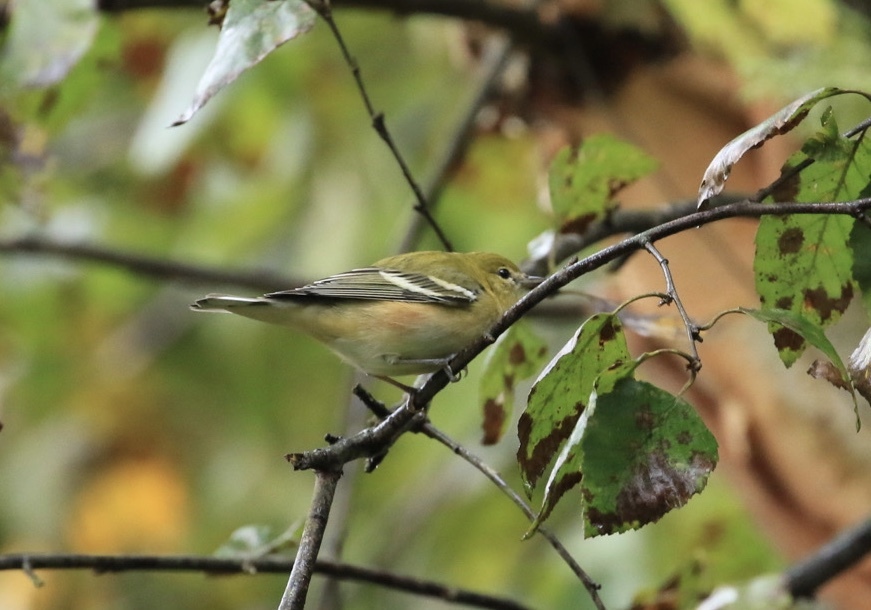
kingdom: Animalia
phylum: Chordata
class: Aves
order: Passeriformes
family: Parulidae
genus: Setophaga
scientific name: Setophaga castanea
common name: Bay-breasted warbler
